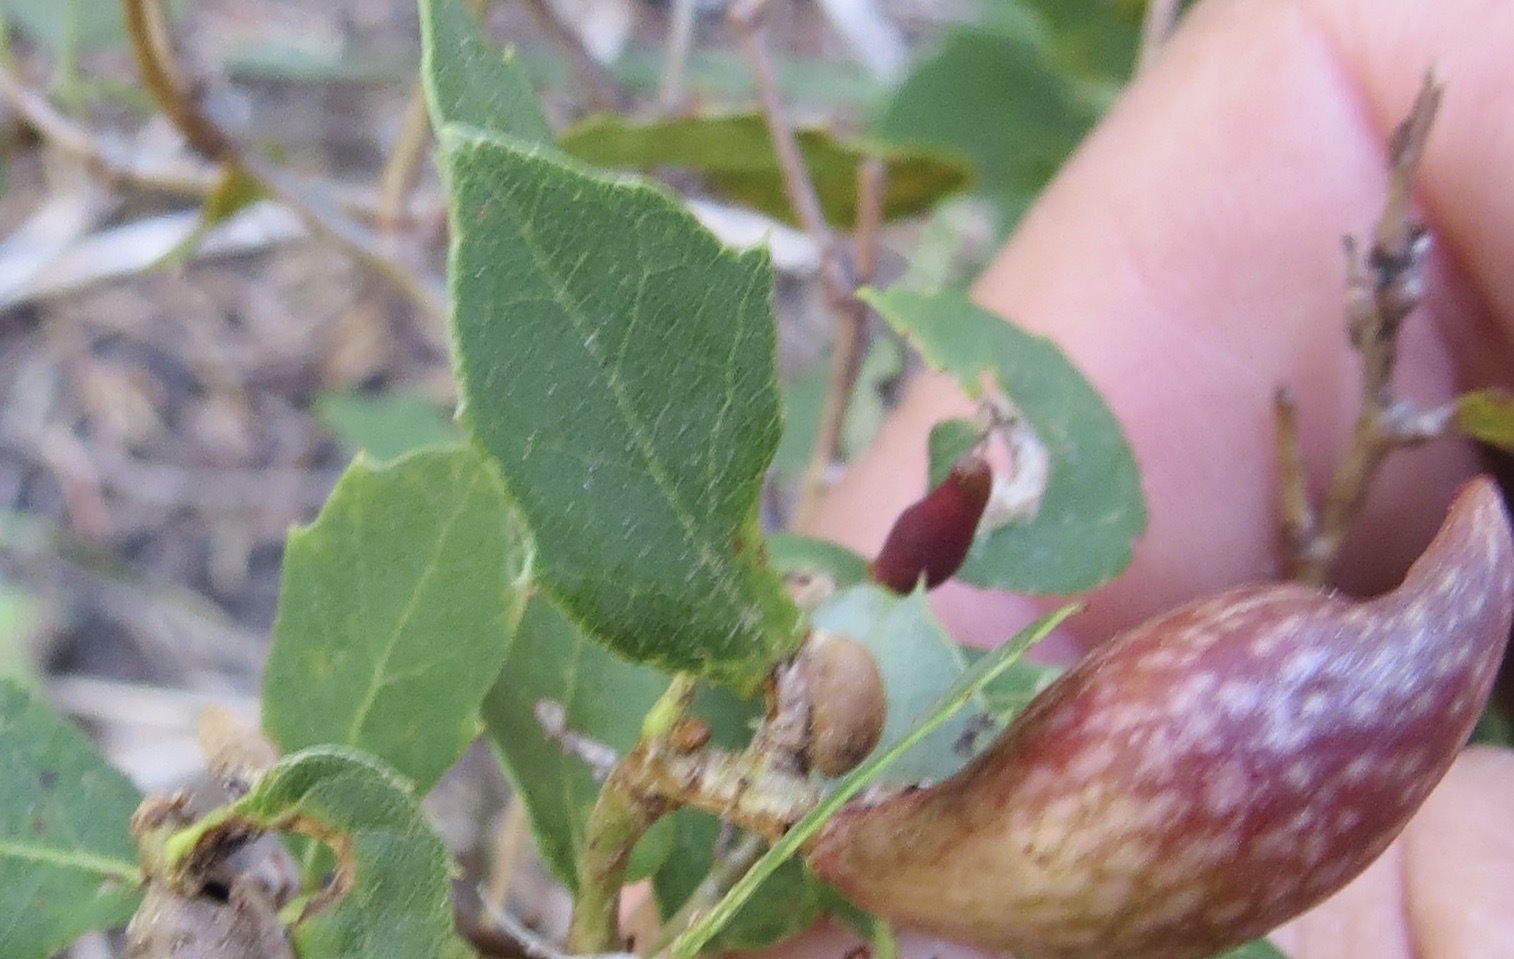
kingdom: Animalia
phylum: Arthropoda
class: Insecta
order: Hymenoptera
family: Cynipidae
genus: Andricus
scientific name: Andricus
